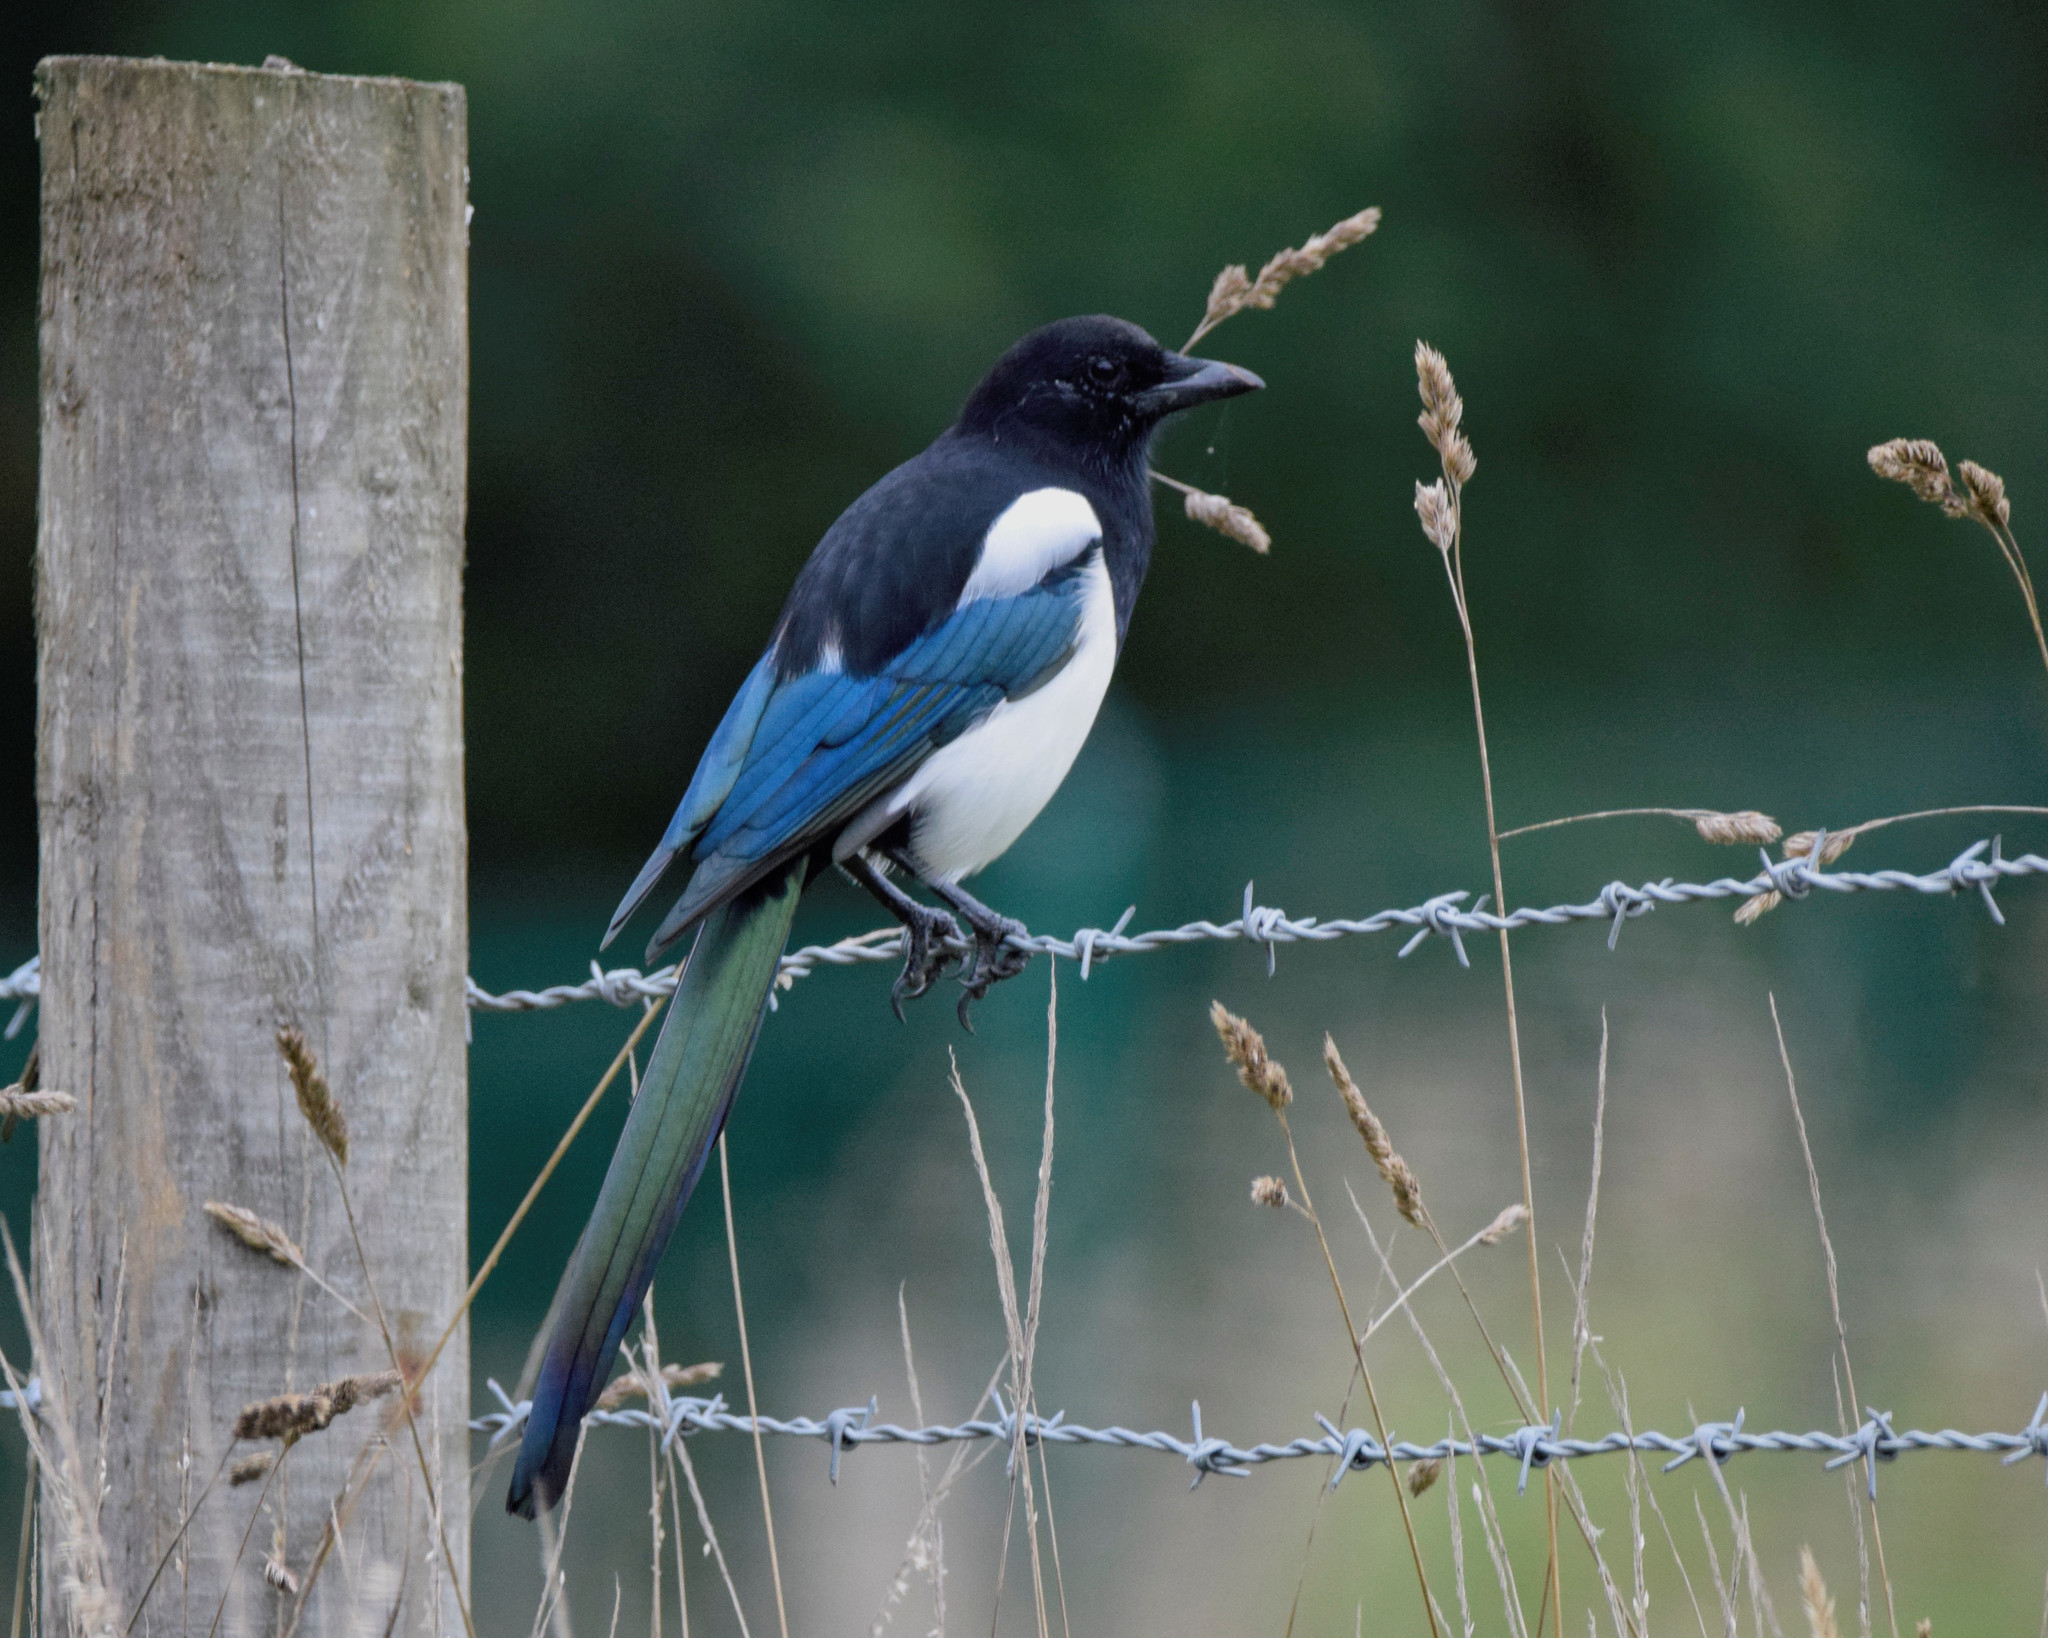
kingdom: Animalia
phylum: Chordata
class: Aves
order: Passeriformes
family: Corvidae
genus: Pica
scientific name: Pica pica
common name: Eurasian magpie
